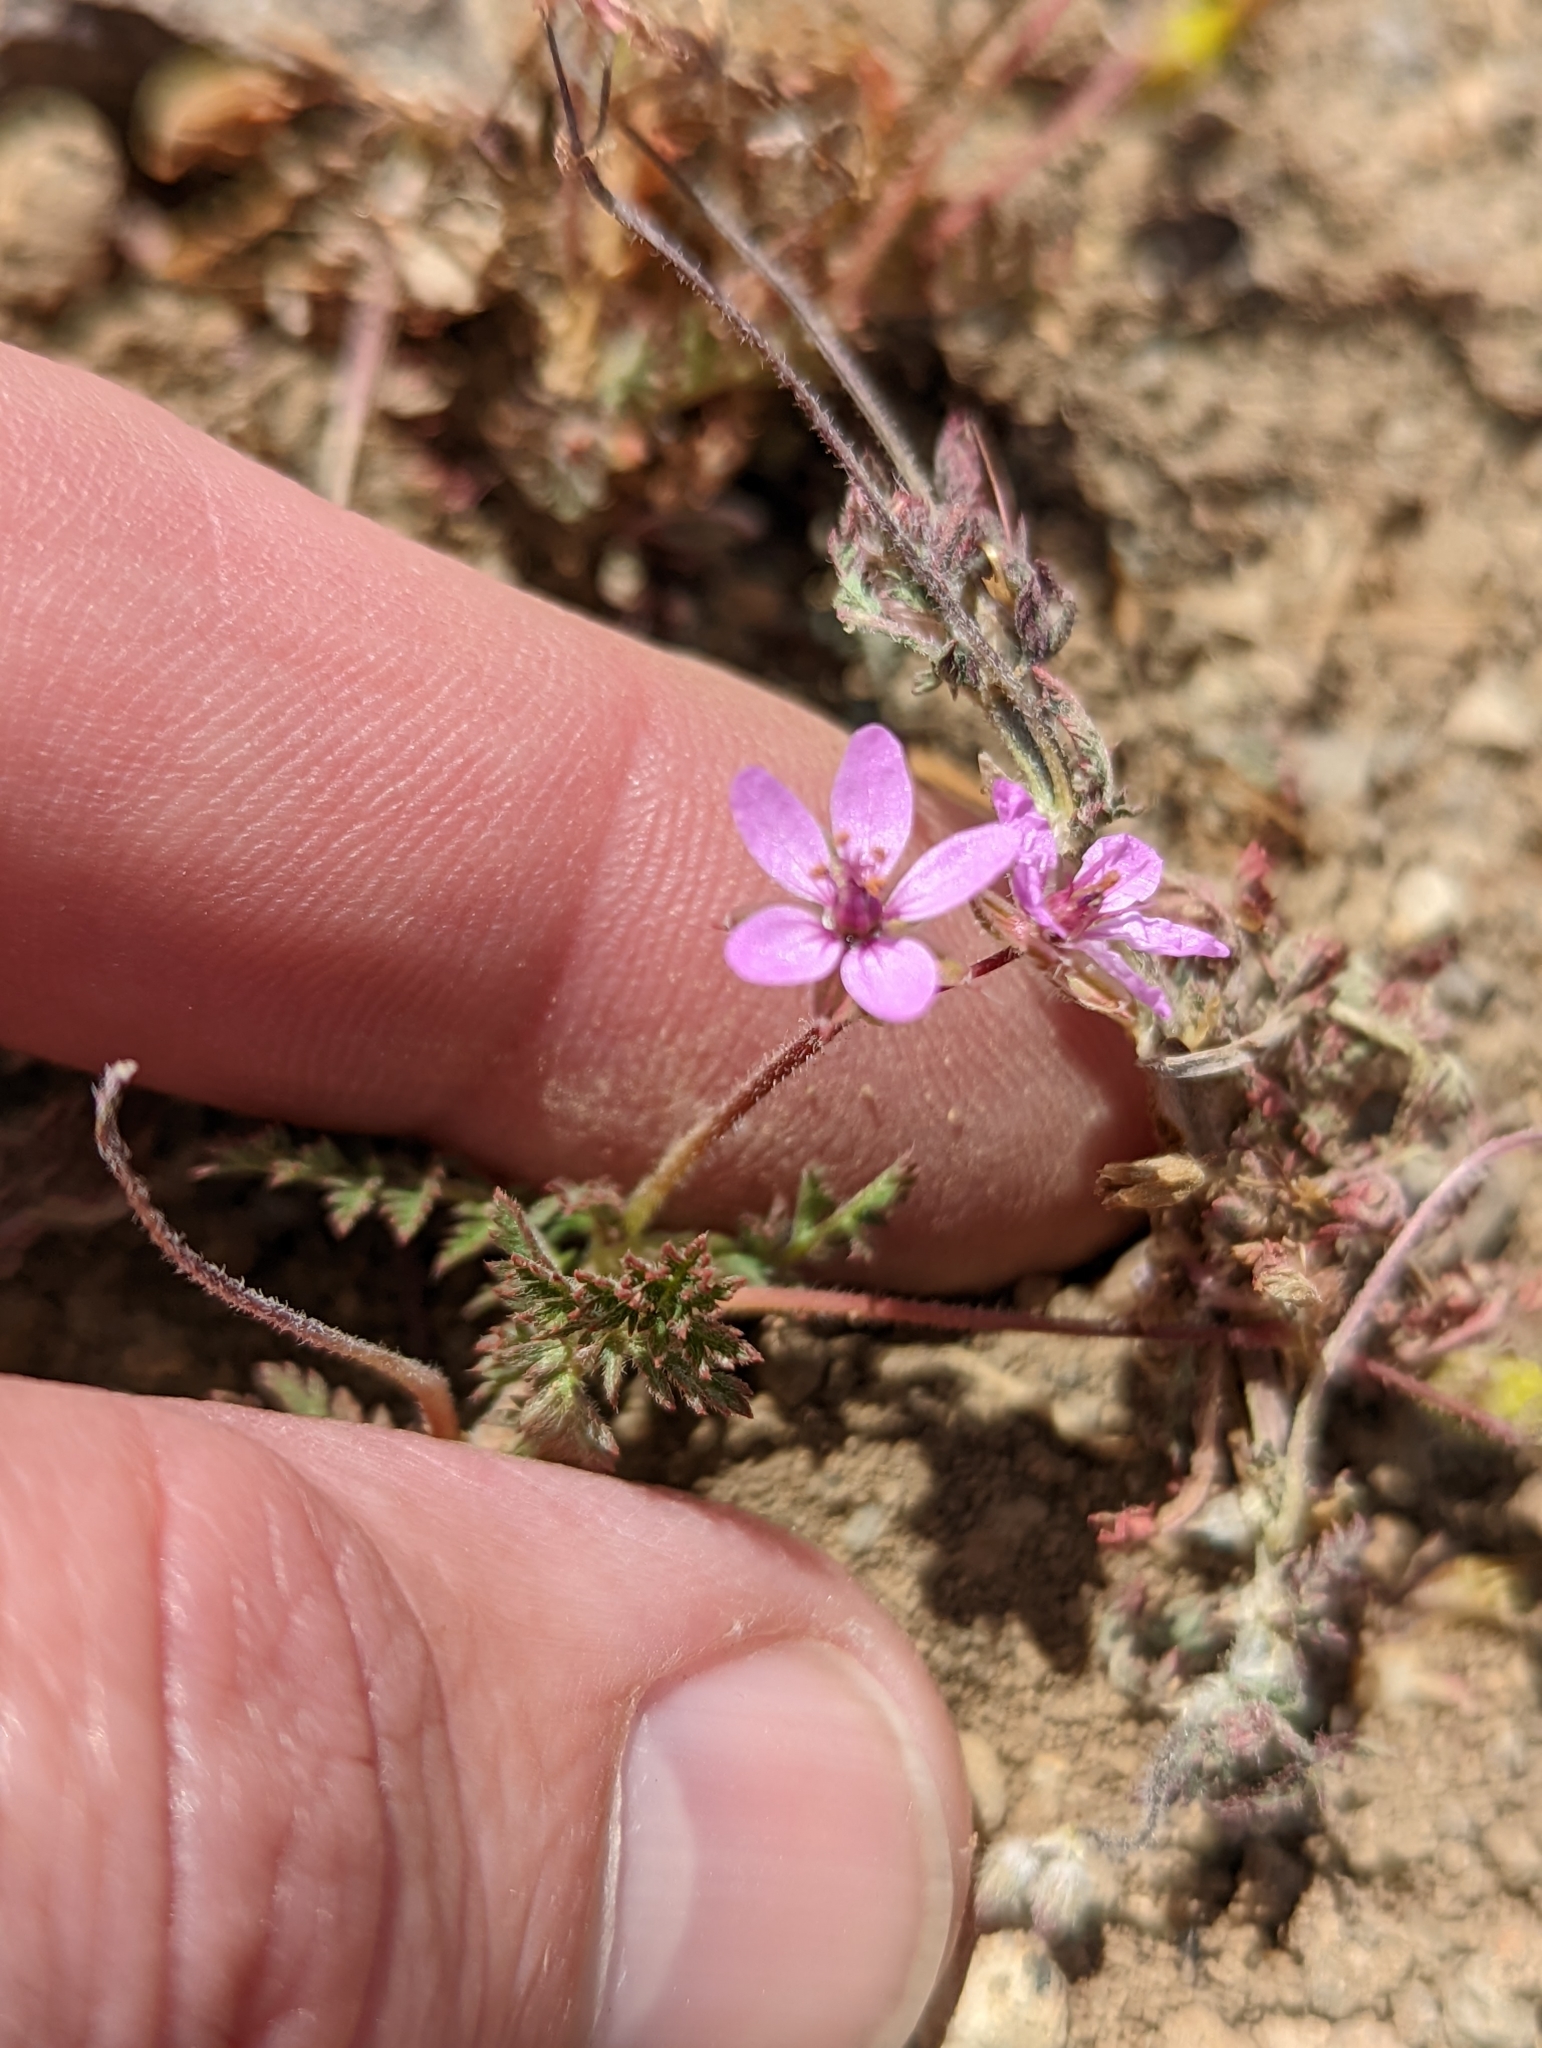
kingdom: Plantae
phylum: Tracheophyta
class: Magnoliopsida
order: Geraniales
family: Geraniaceae
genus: Erodium
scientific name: Erodium cicutarium
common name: Common stork's-bill
